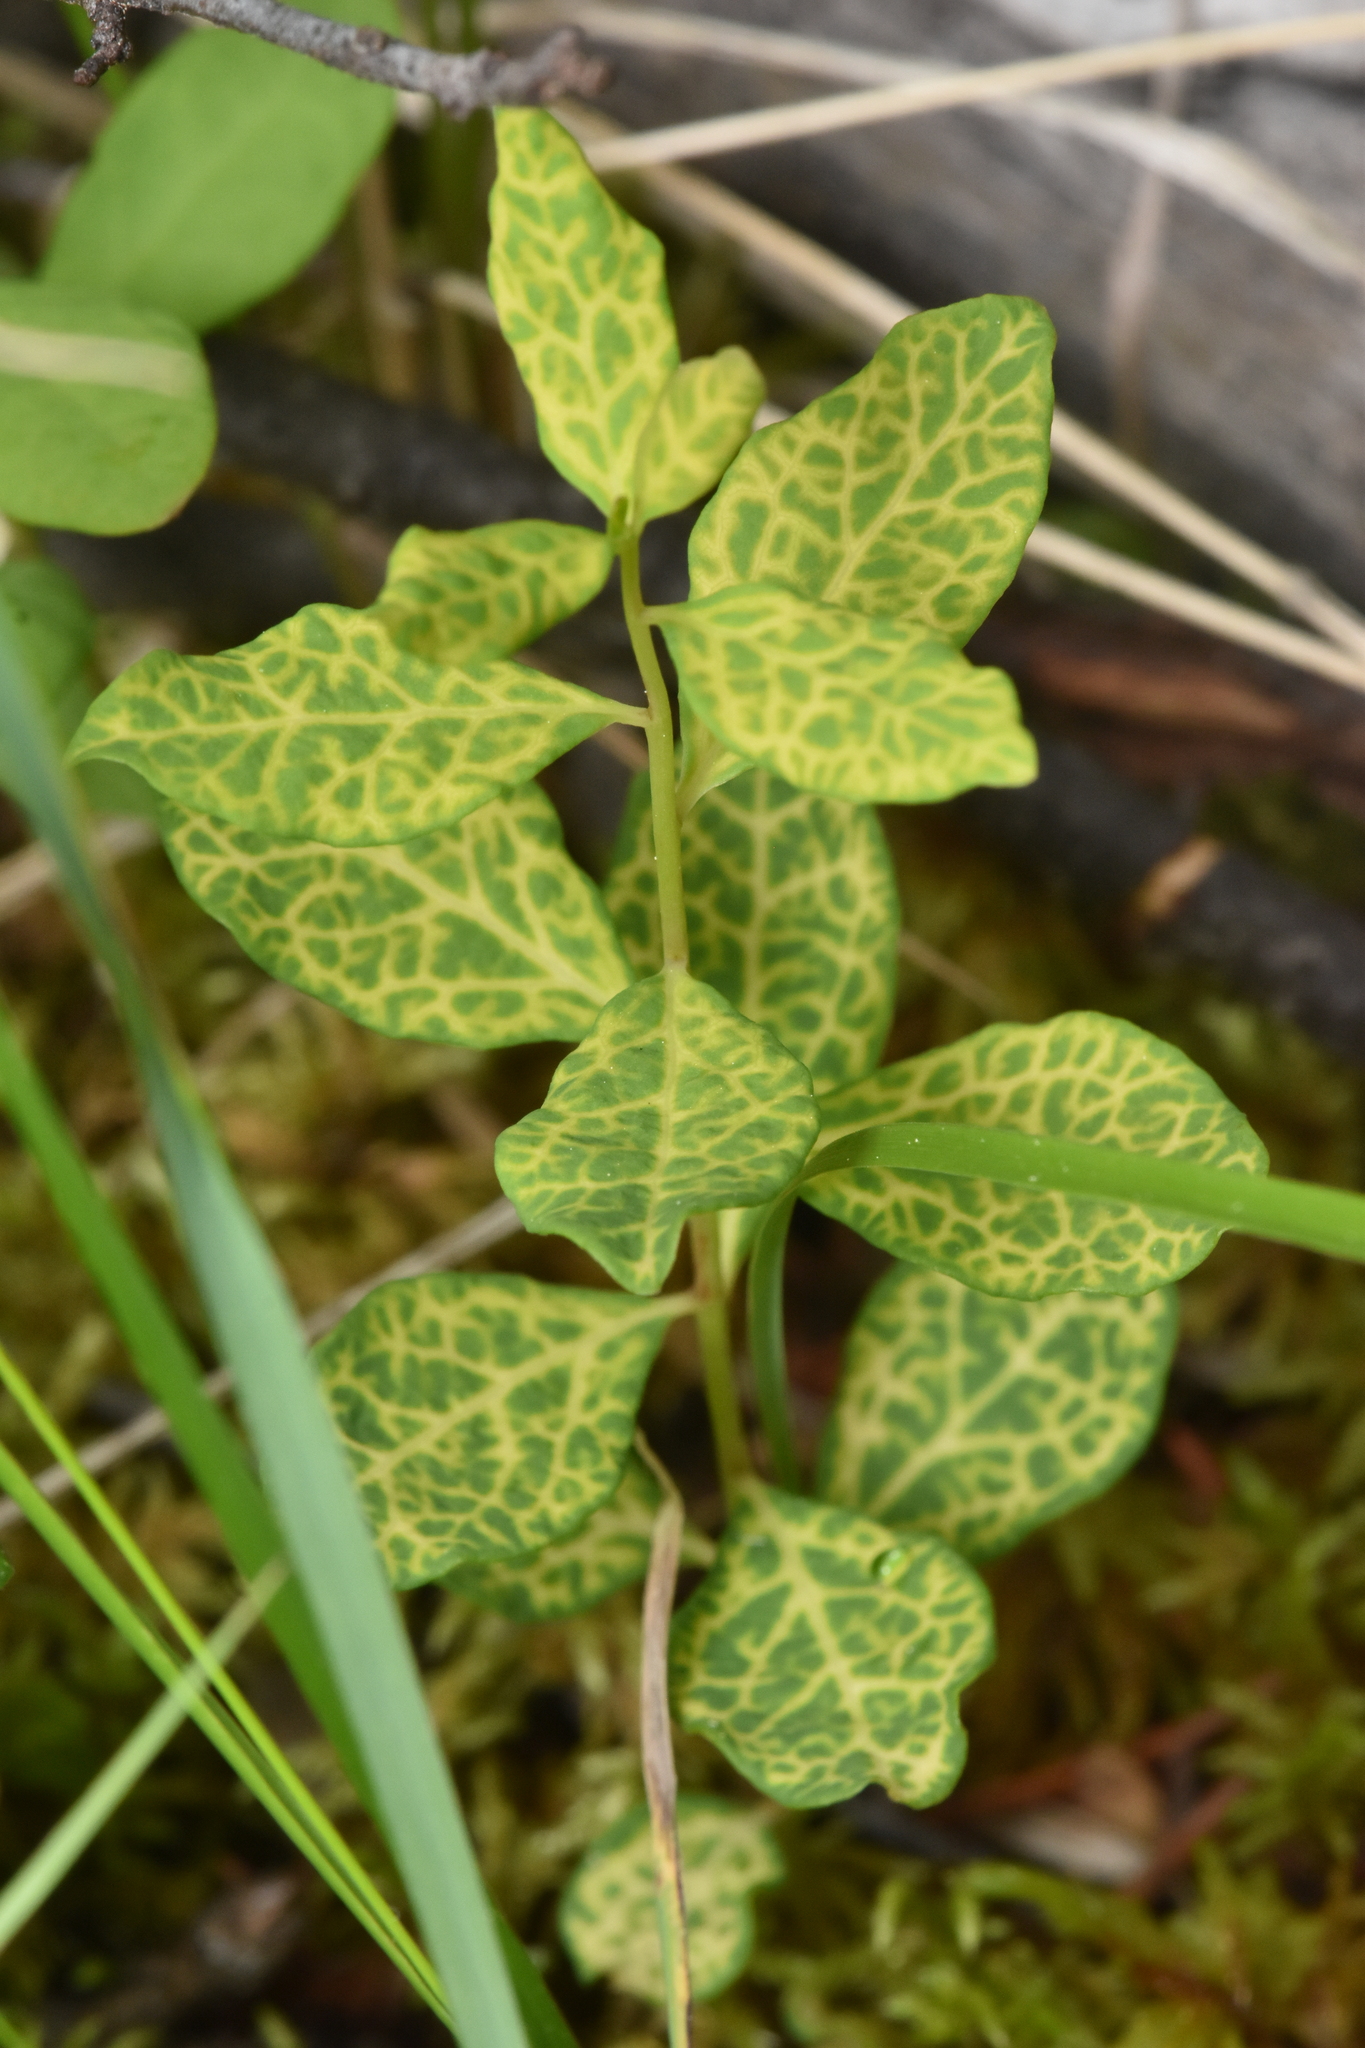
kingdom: Plantae
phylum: Tracheophyta
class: Magnoliopsida
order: Santalales
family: Comandraceae
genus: Geocaulon
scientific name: Geocaulon lividum
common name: Earthberry
